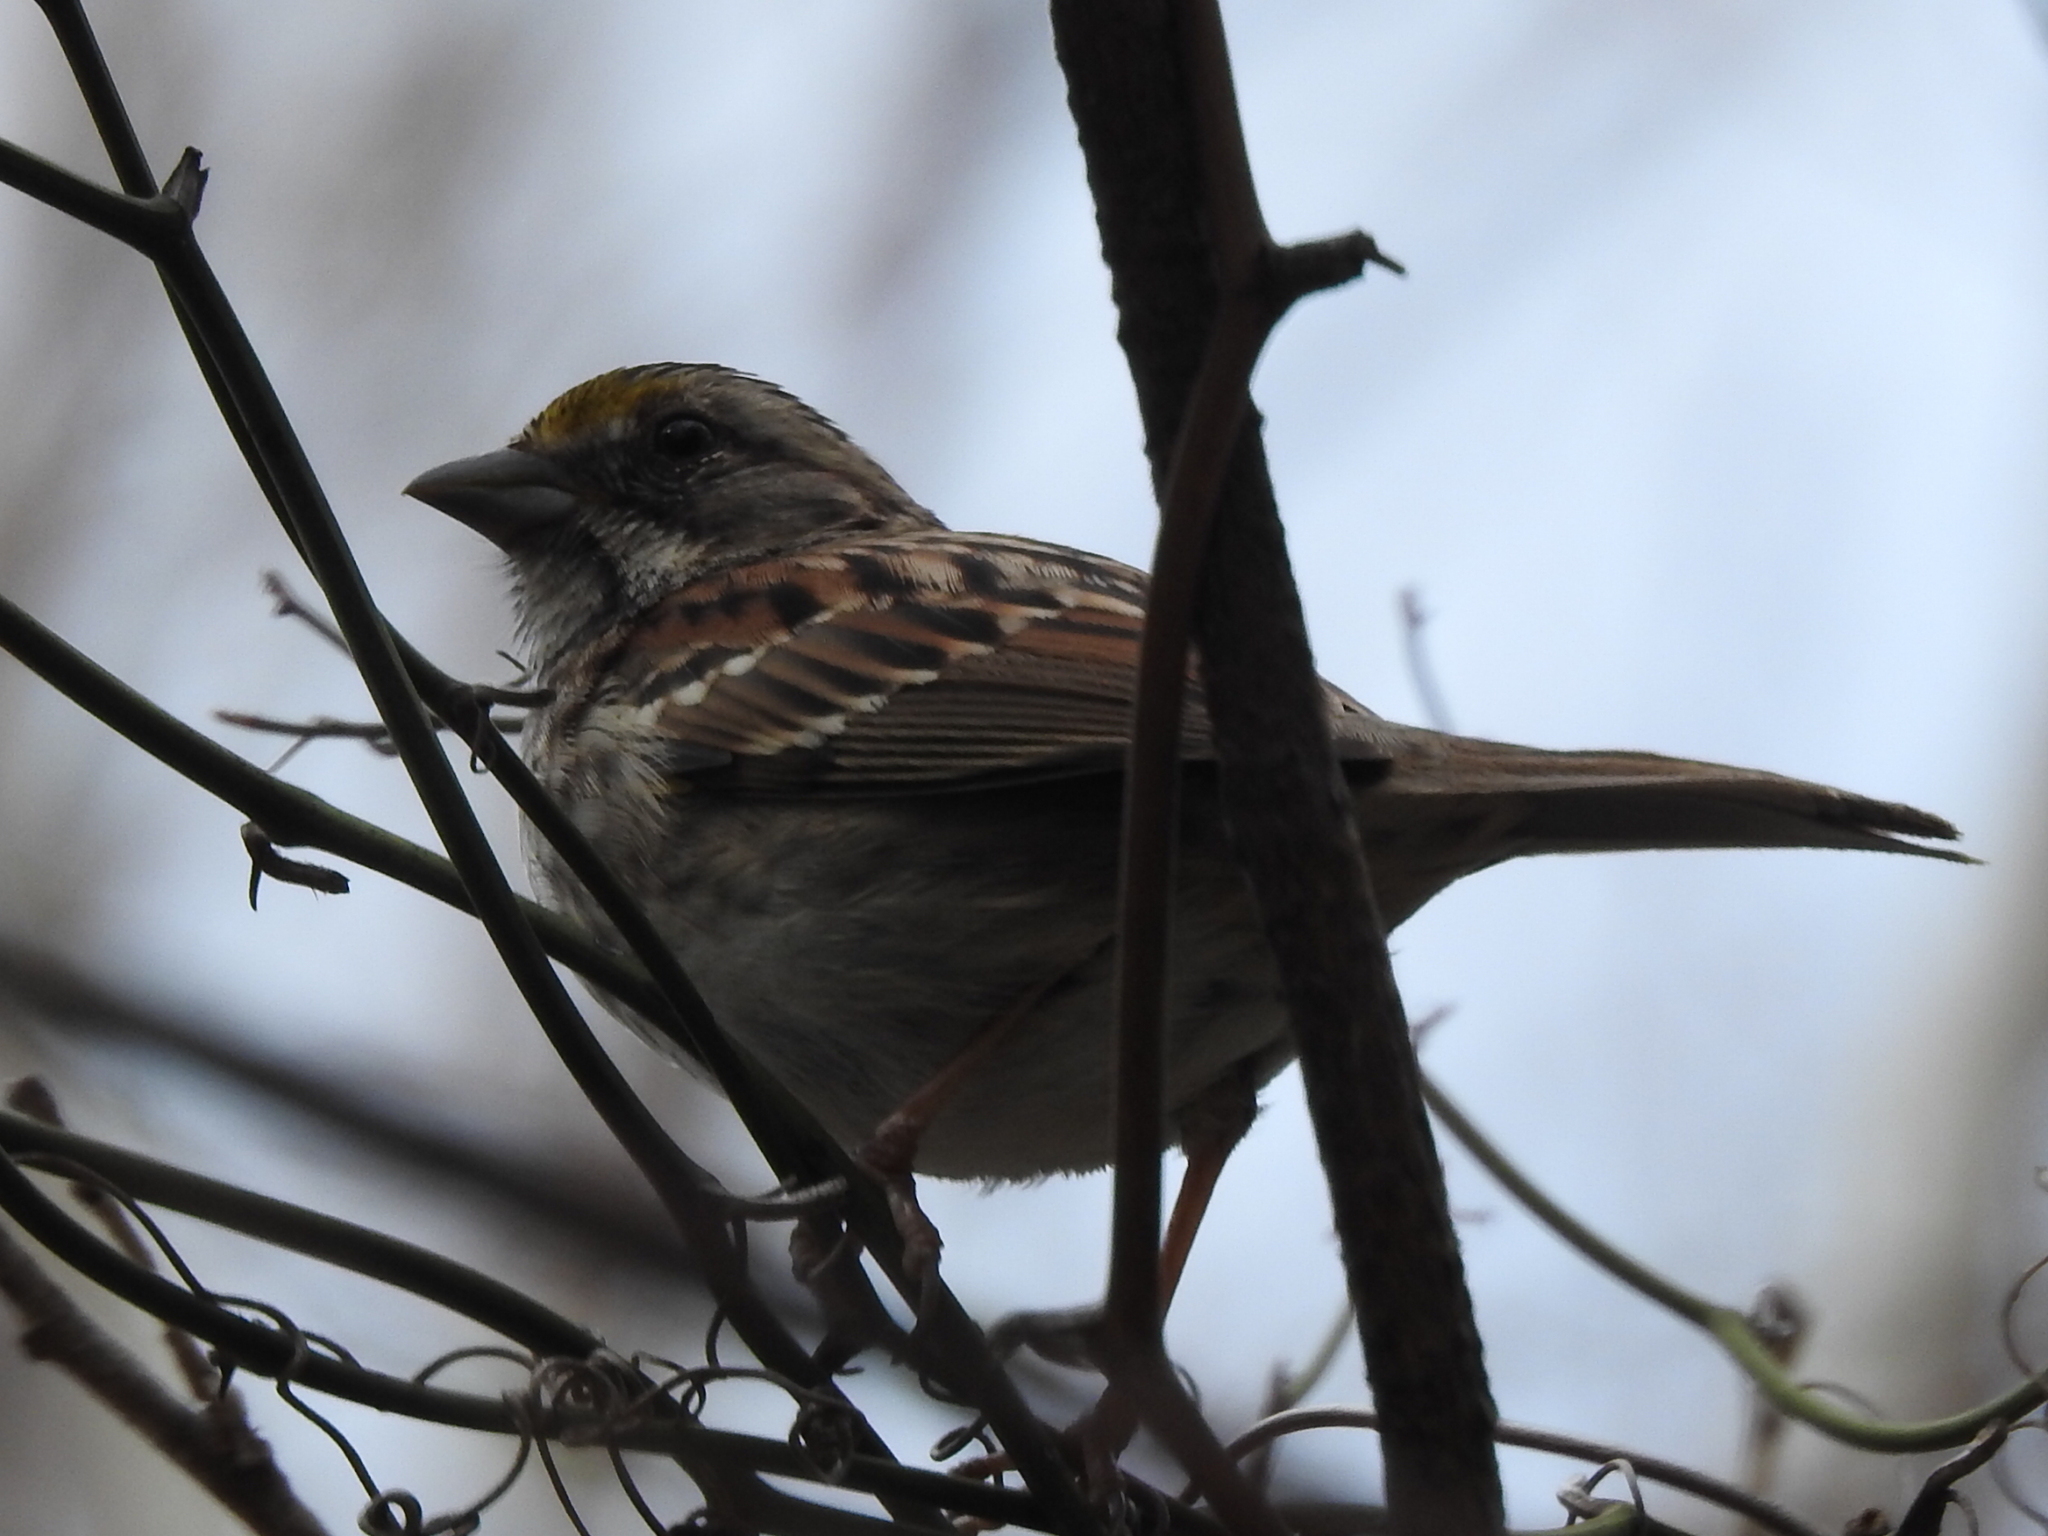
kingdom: Animalia
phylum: Chordata
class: Aves
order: Passeriformes
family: Passerellidae
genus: Zonotrichia
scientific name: Zonotrichia albicollis
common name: White-throated sparrow
